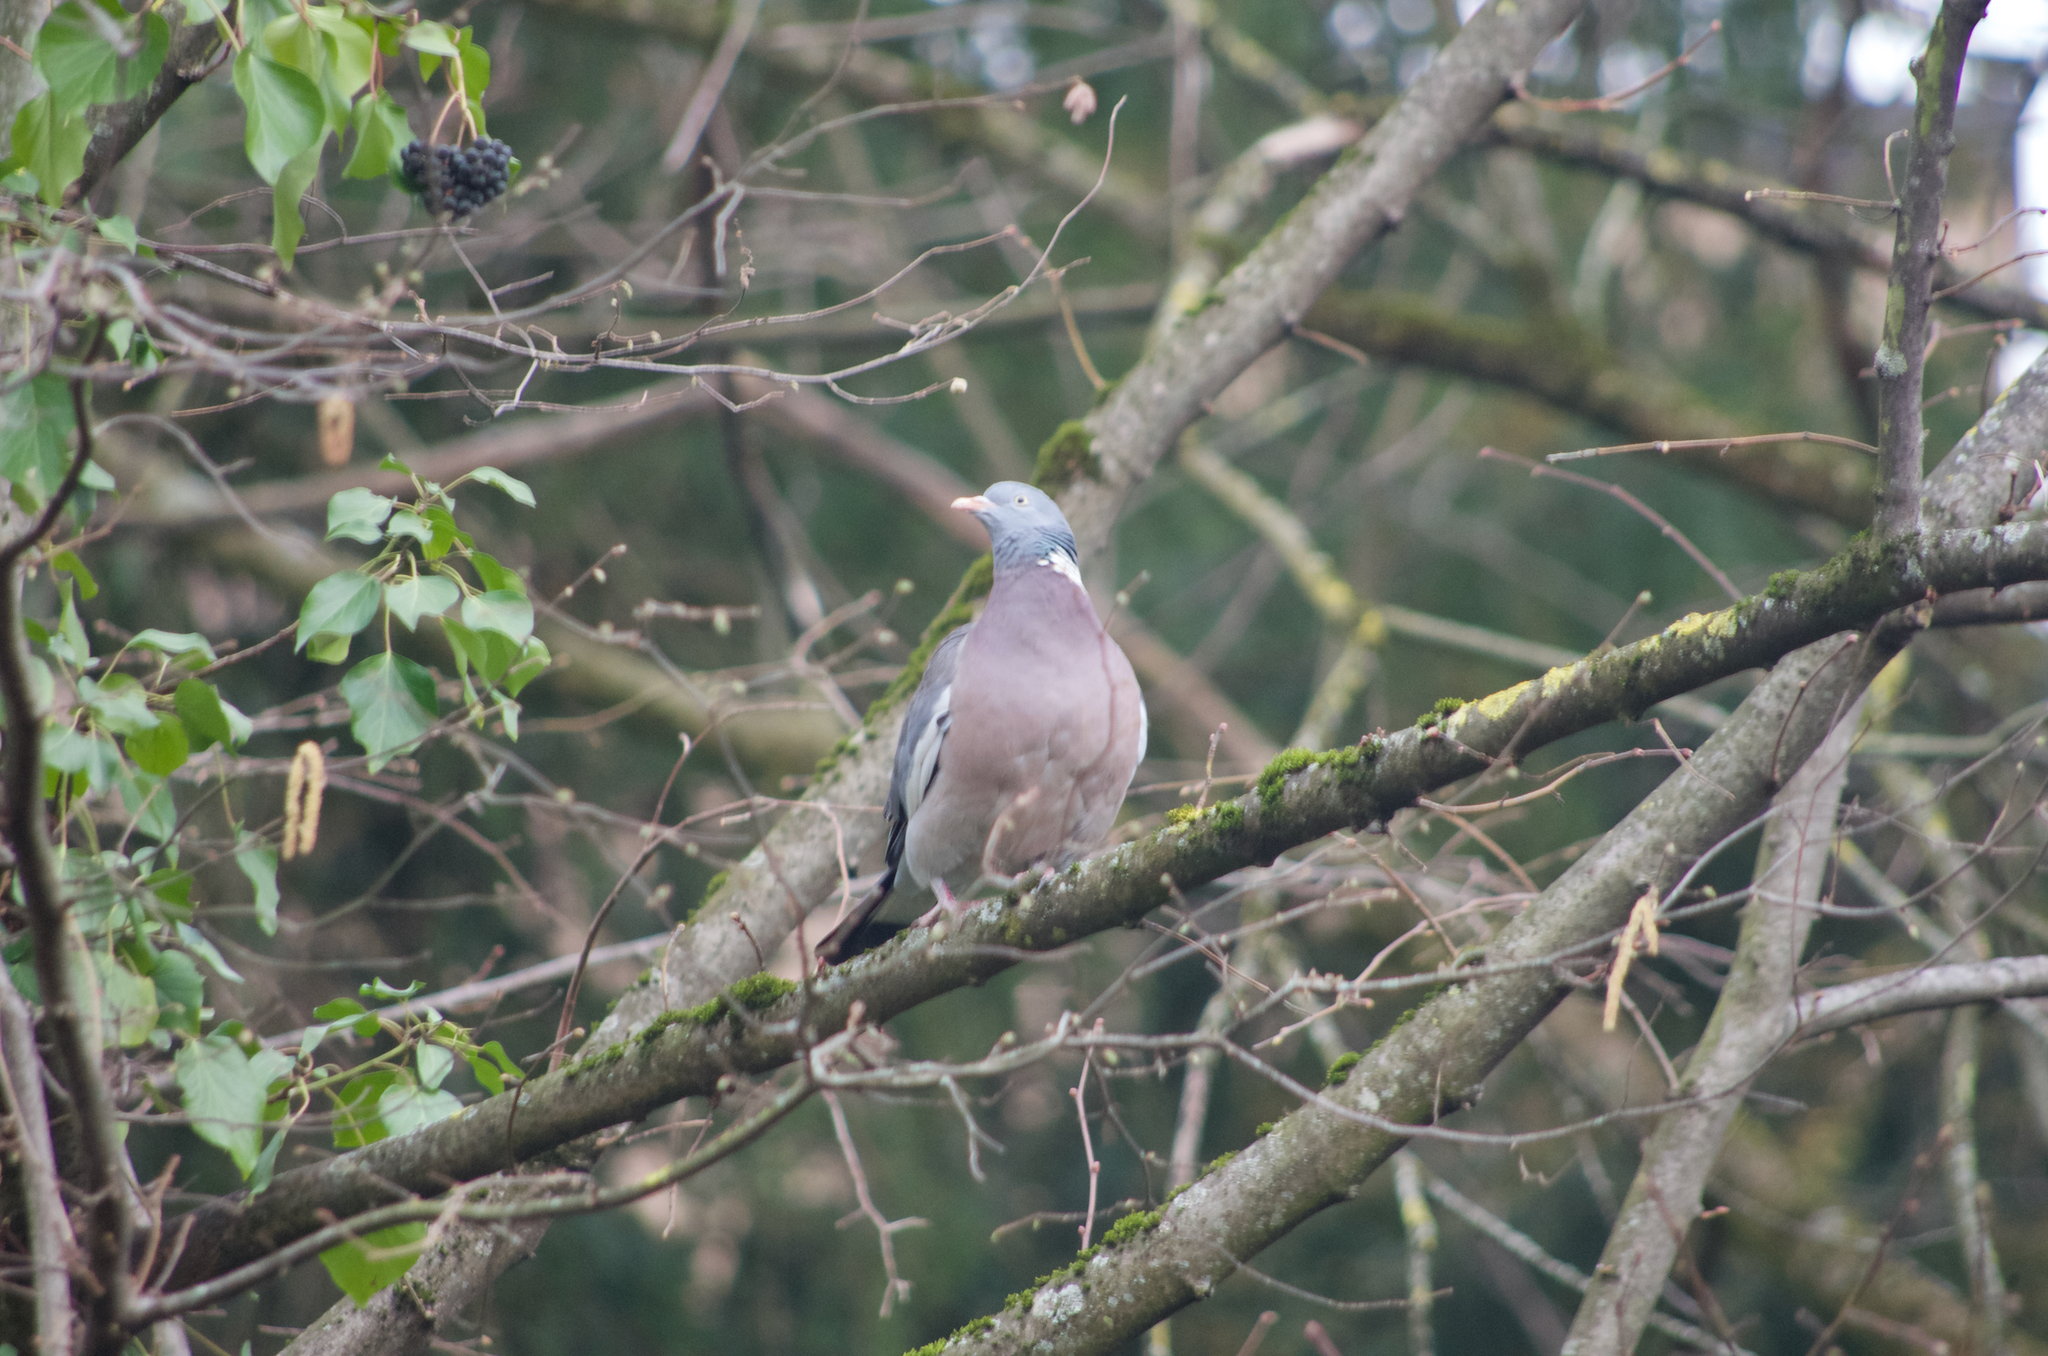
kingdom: Animalia
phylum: Chordata
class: Aves
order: Columbiformes
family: Columbidae
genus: Columba
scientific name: Columba palumbus
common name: Common wood pigeon
